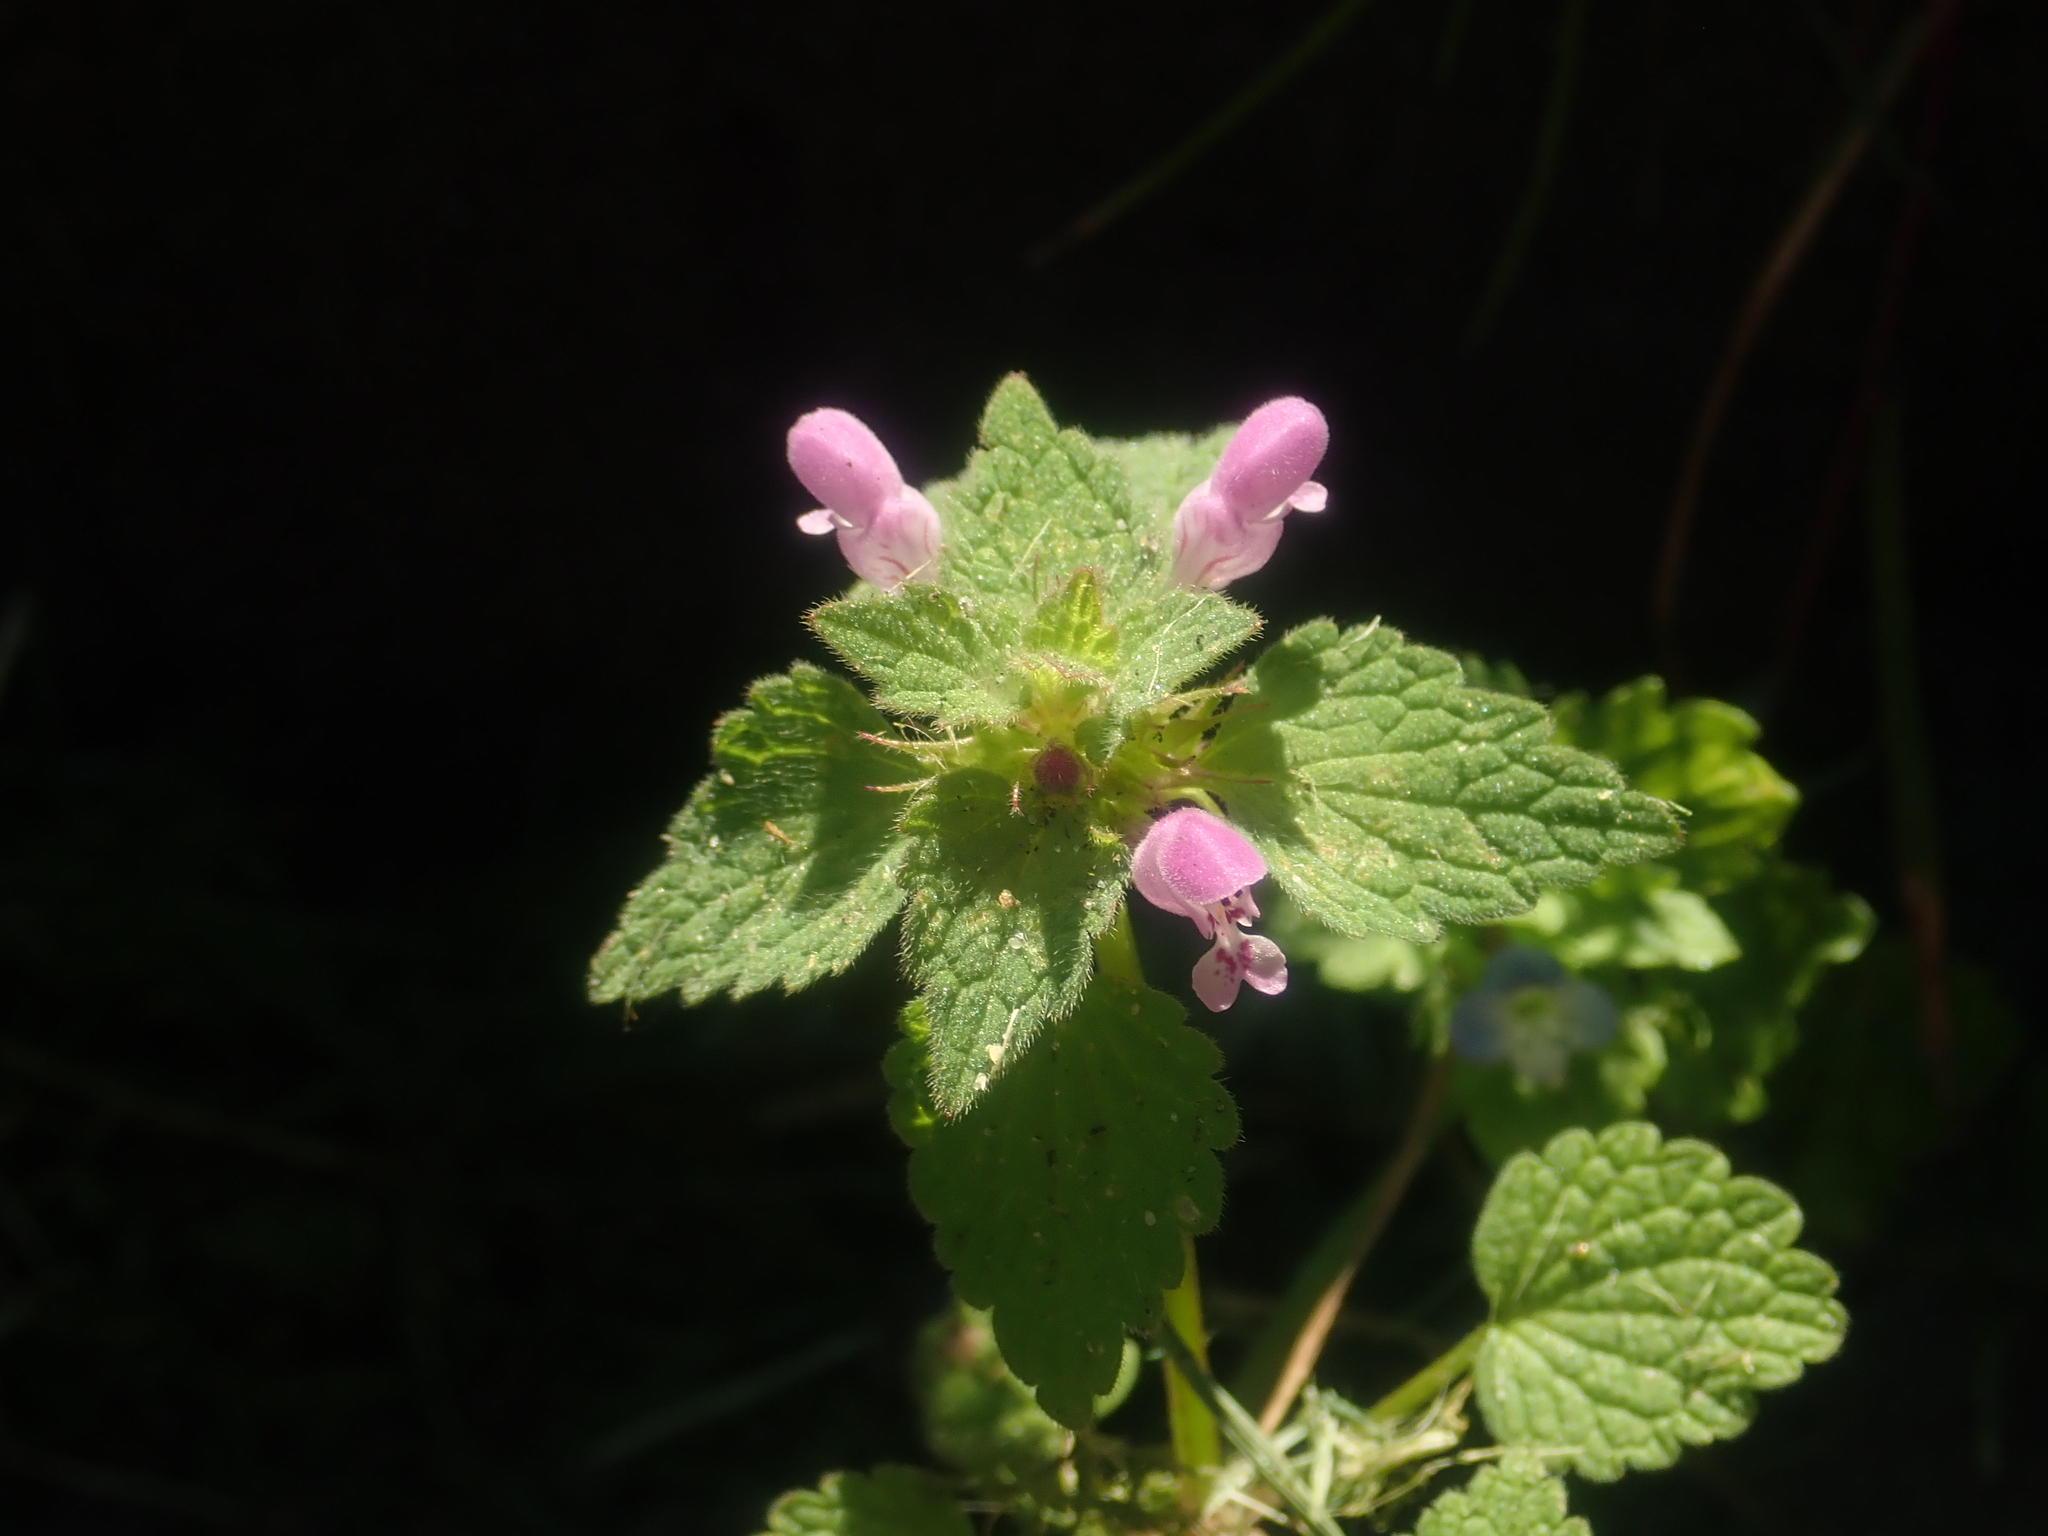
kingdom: Plantae
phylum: Tracheophyta
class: Magnoliopsida
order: Lamiales
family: Lamiaceae
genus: Lamium
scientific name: Lamium purpureum
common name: Red dead-nettle
